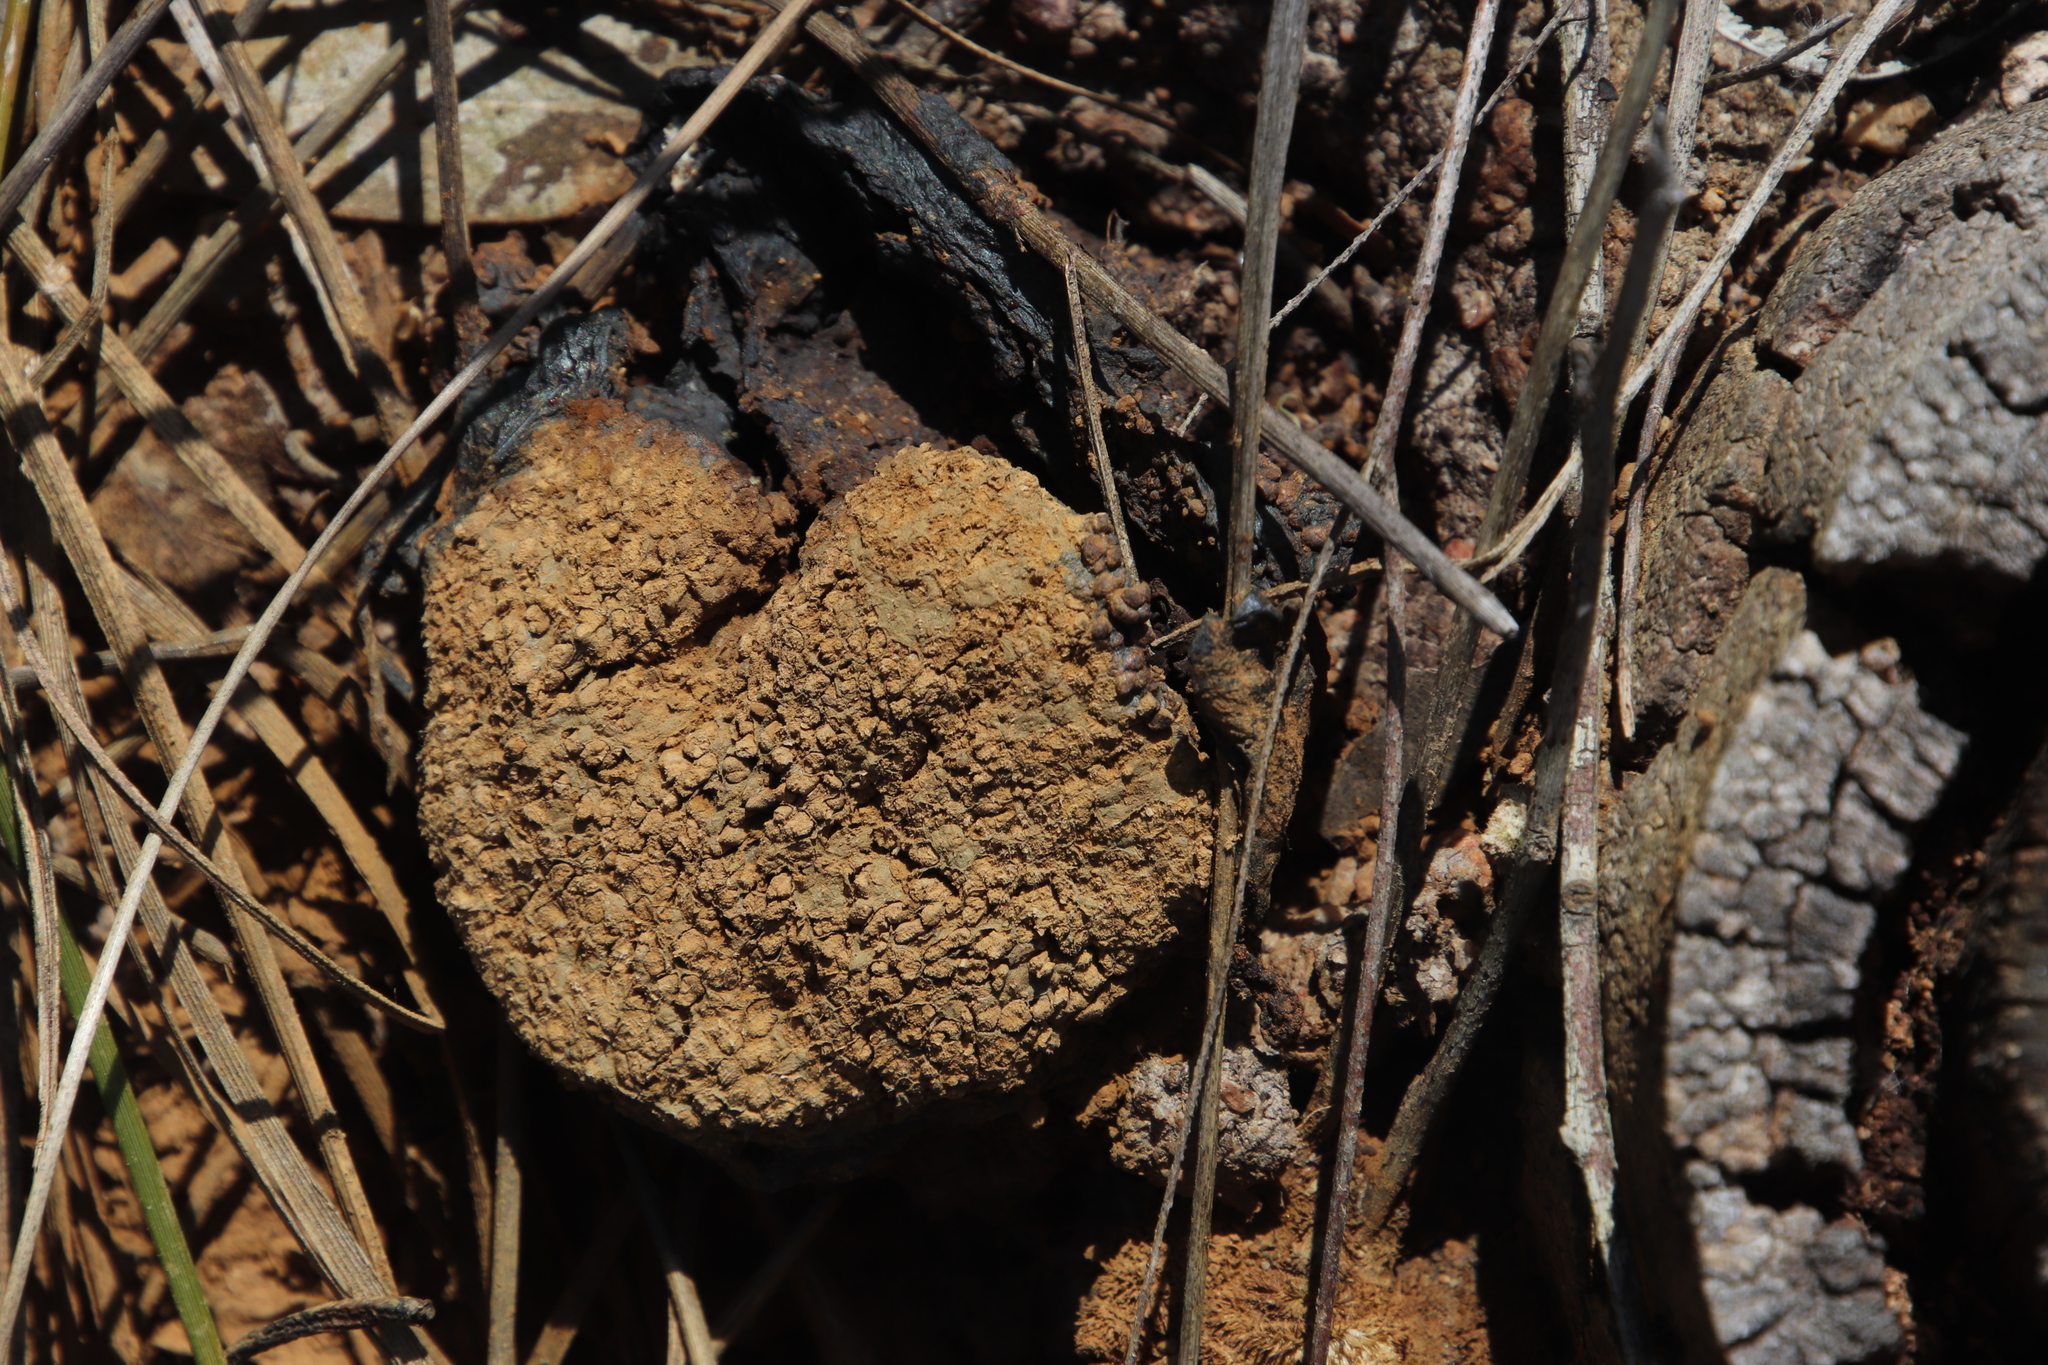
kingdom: Fungi
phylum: Basidiomycota
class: Agaricomycetes
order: Boletales
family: Sclerodermataceae
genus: Pisolithus
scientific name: Pisolithus arhizus
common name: Dyeball
